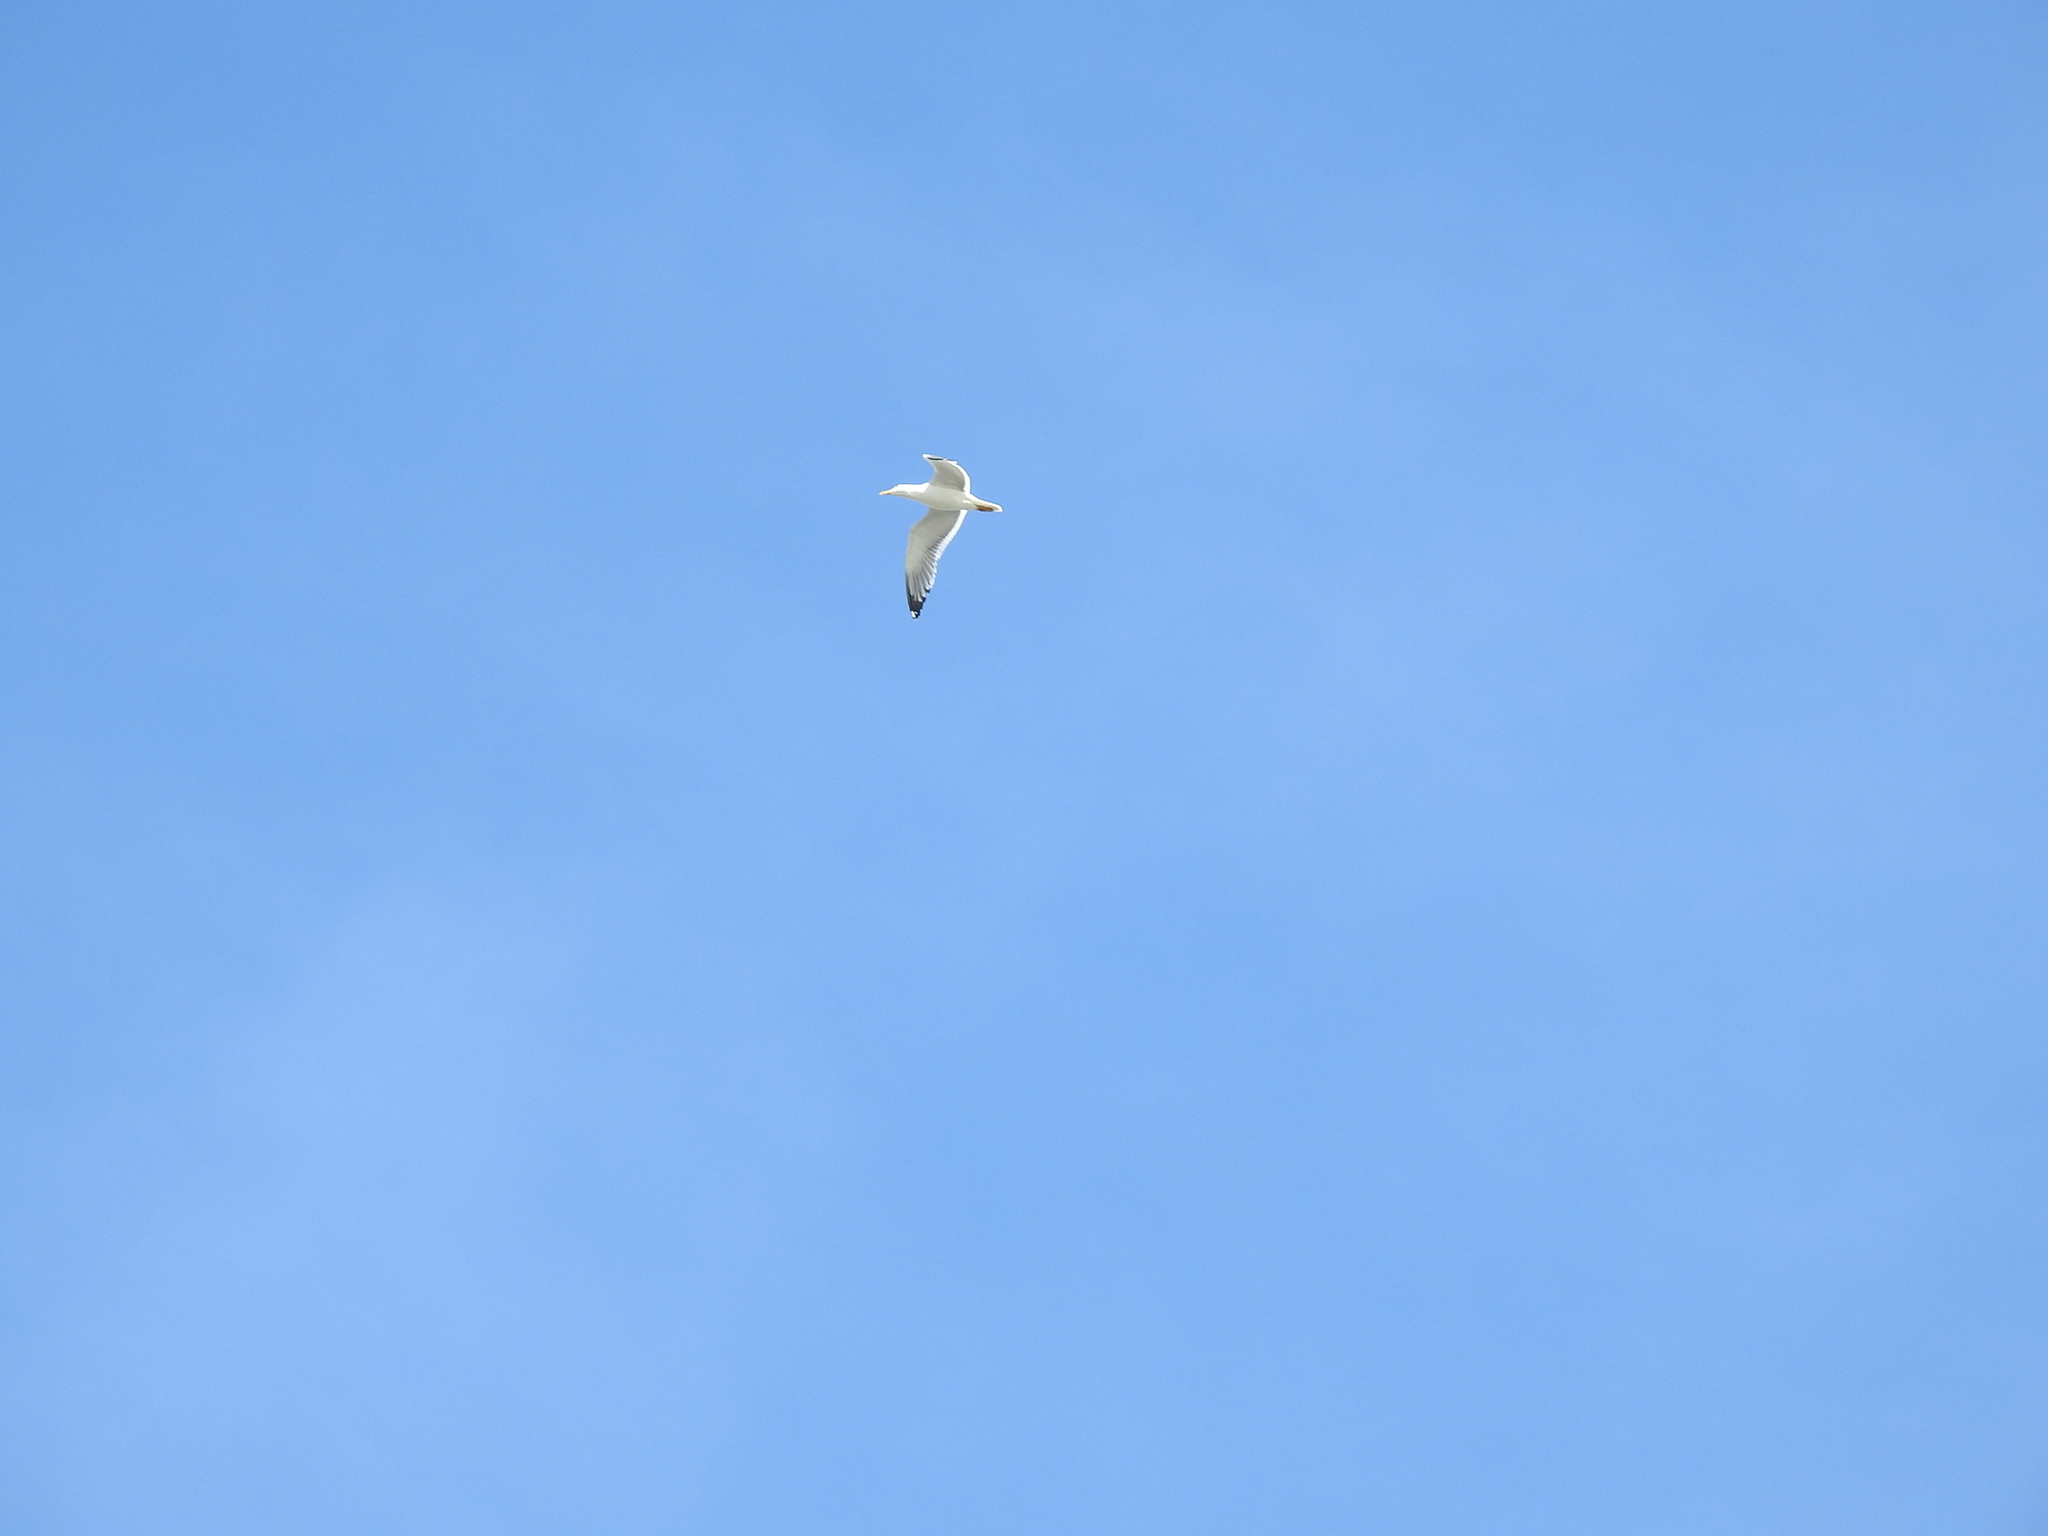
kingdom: Animalia
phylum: Chordata
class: Aves
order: Charadriiformes
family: Laridae
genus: Larus
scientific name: Larus fuscus
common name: Lesser black-backed gull
